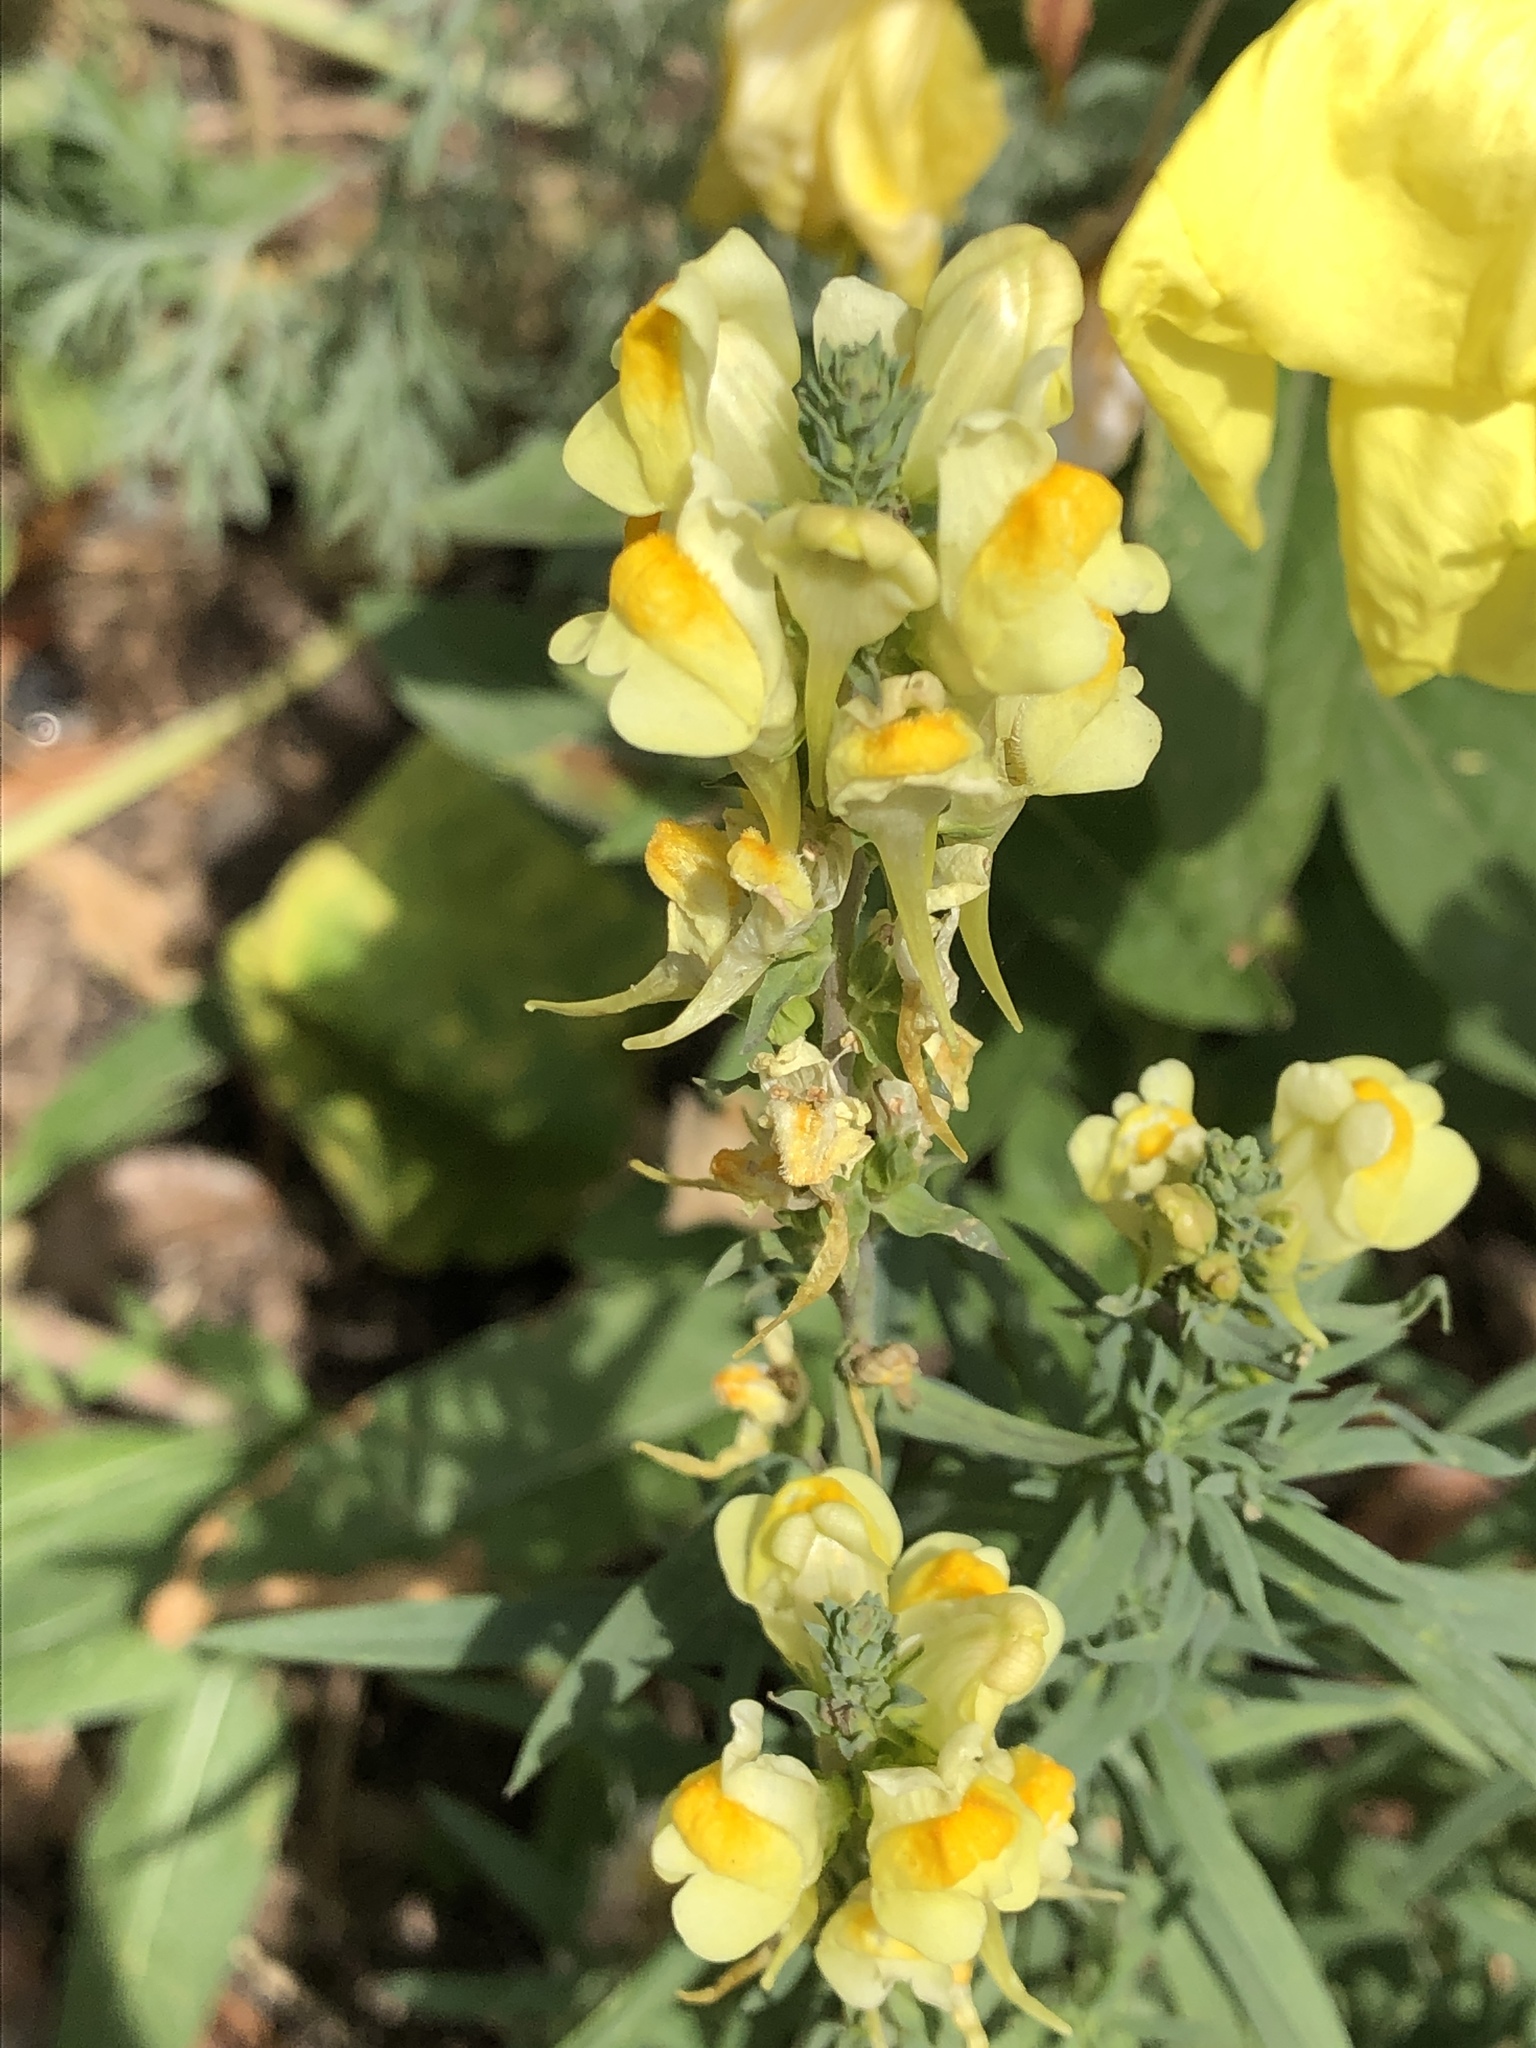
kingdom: Plantae
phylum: Tracheophyta
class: Magnoliopsida
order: Lamiales
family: Plantaginaceae
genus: Linaria
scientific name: Linaria vulgaris
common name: Butter and eggs
